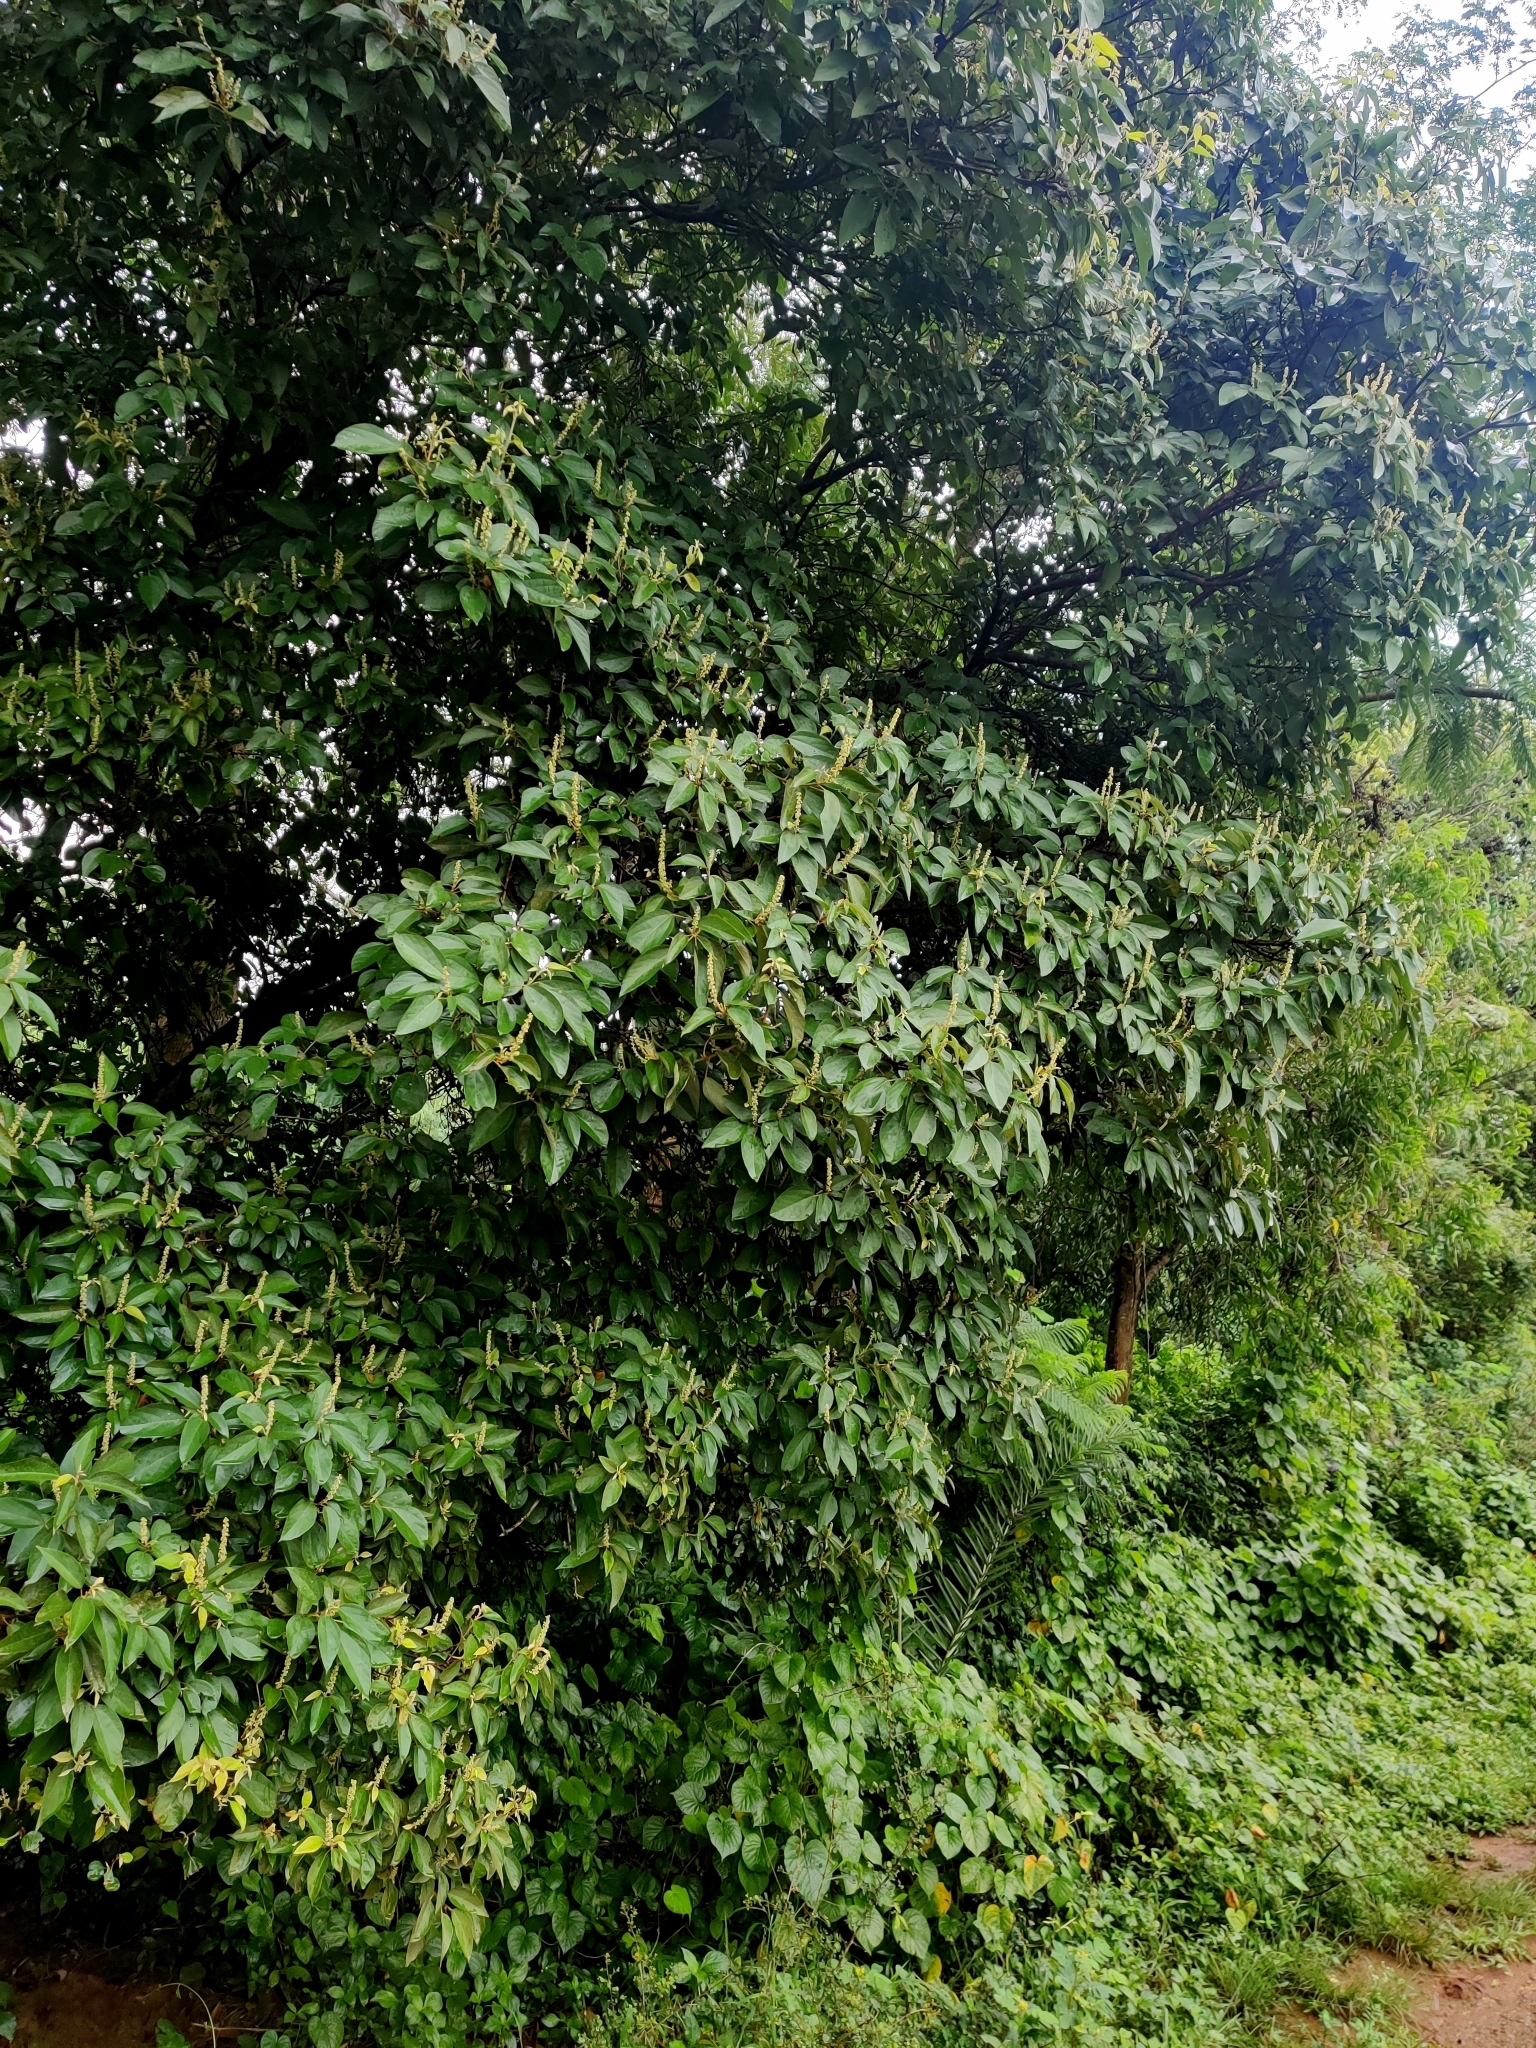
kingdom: Plantae
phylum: Tracheophyta
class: Magnoliopsida
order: Malpighiales
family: Euphorbiaceae
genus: Mallotus
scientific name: Mallotus philippensis
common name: Kamala tree
